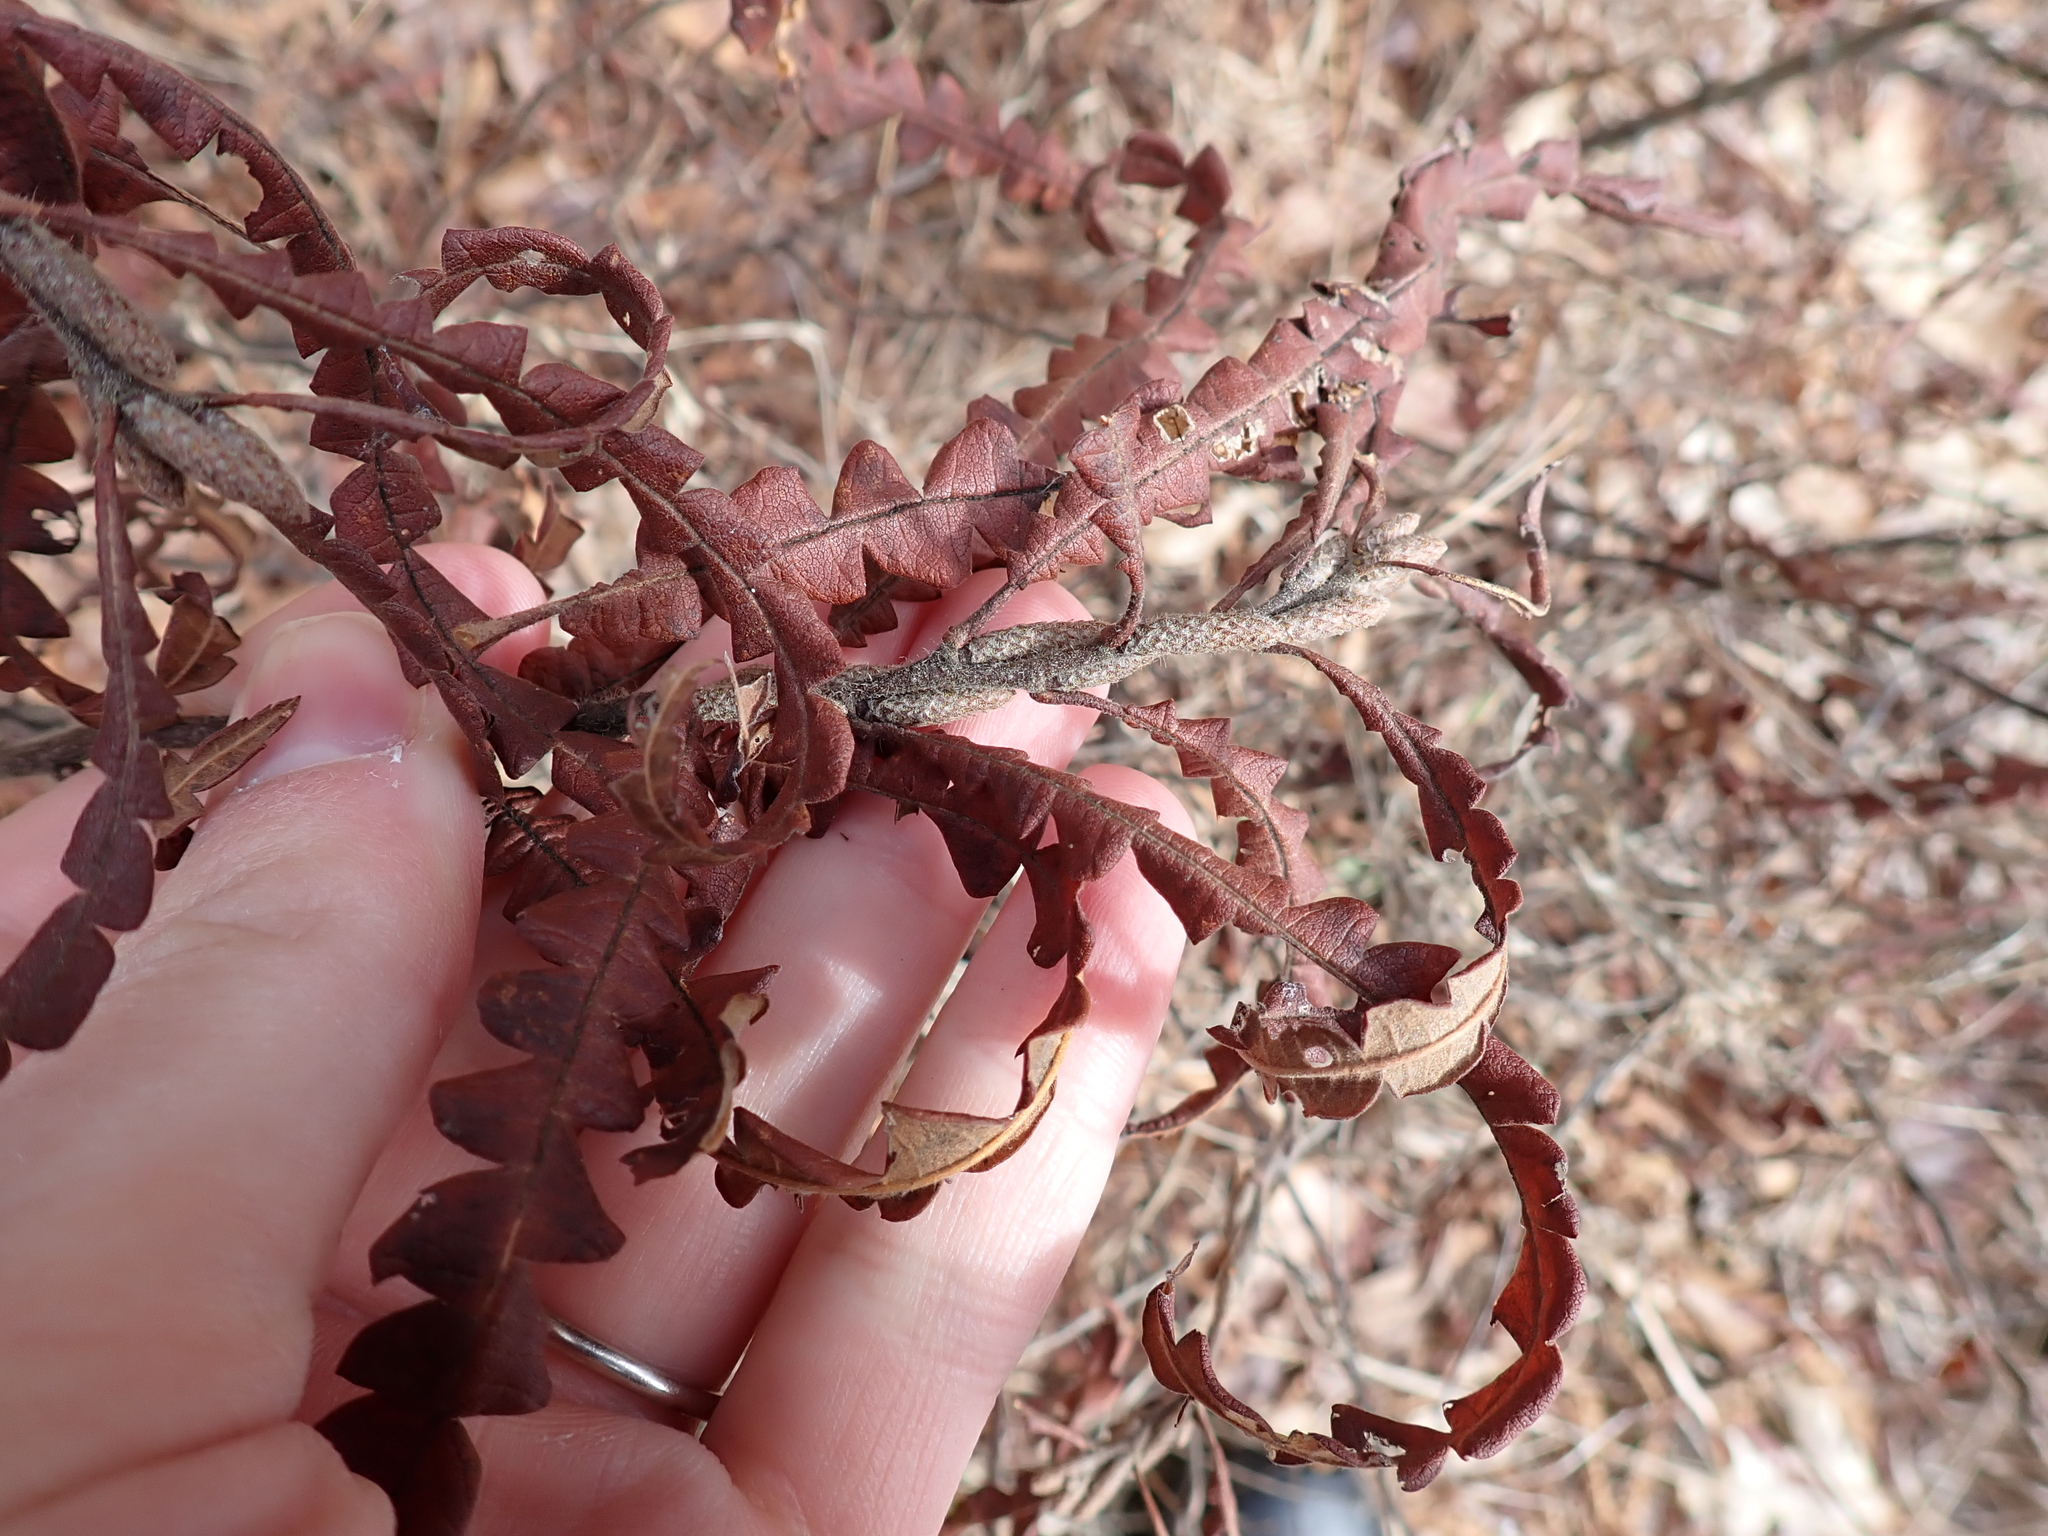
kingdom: Plantae
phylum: Tracheophyta
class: Magnoliopsida
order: Fagales
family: Myricaceae
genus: Comptonia
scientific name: Comptonia peregrina
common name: Sweet-fern
